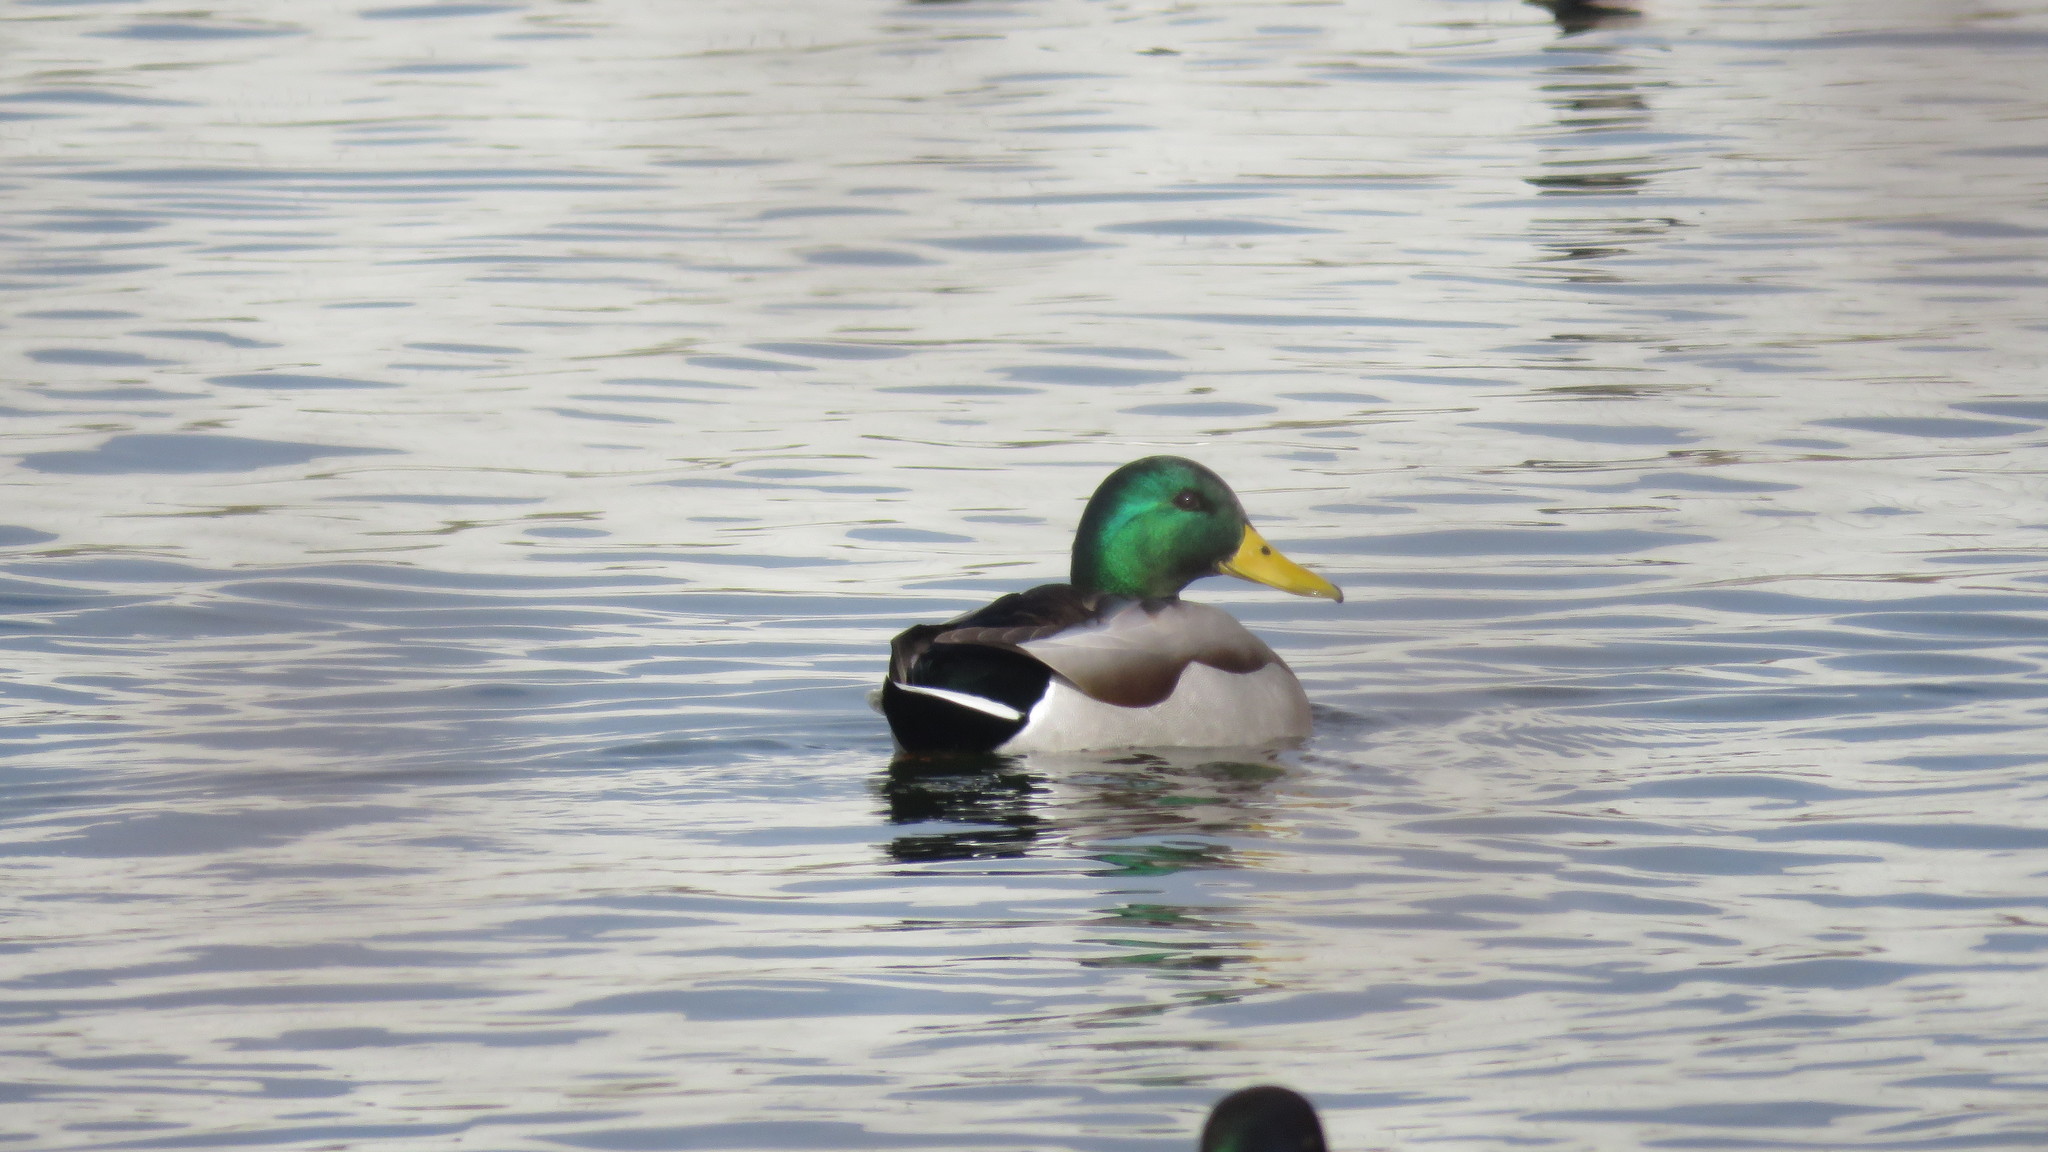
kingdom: Animalia
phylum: Chordata
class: Aves
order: Anseriformes
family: Anatidae
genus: Anas
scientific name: Anas platyrhynchos
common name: Mallard
